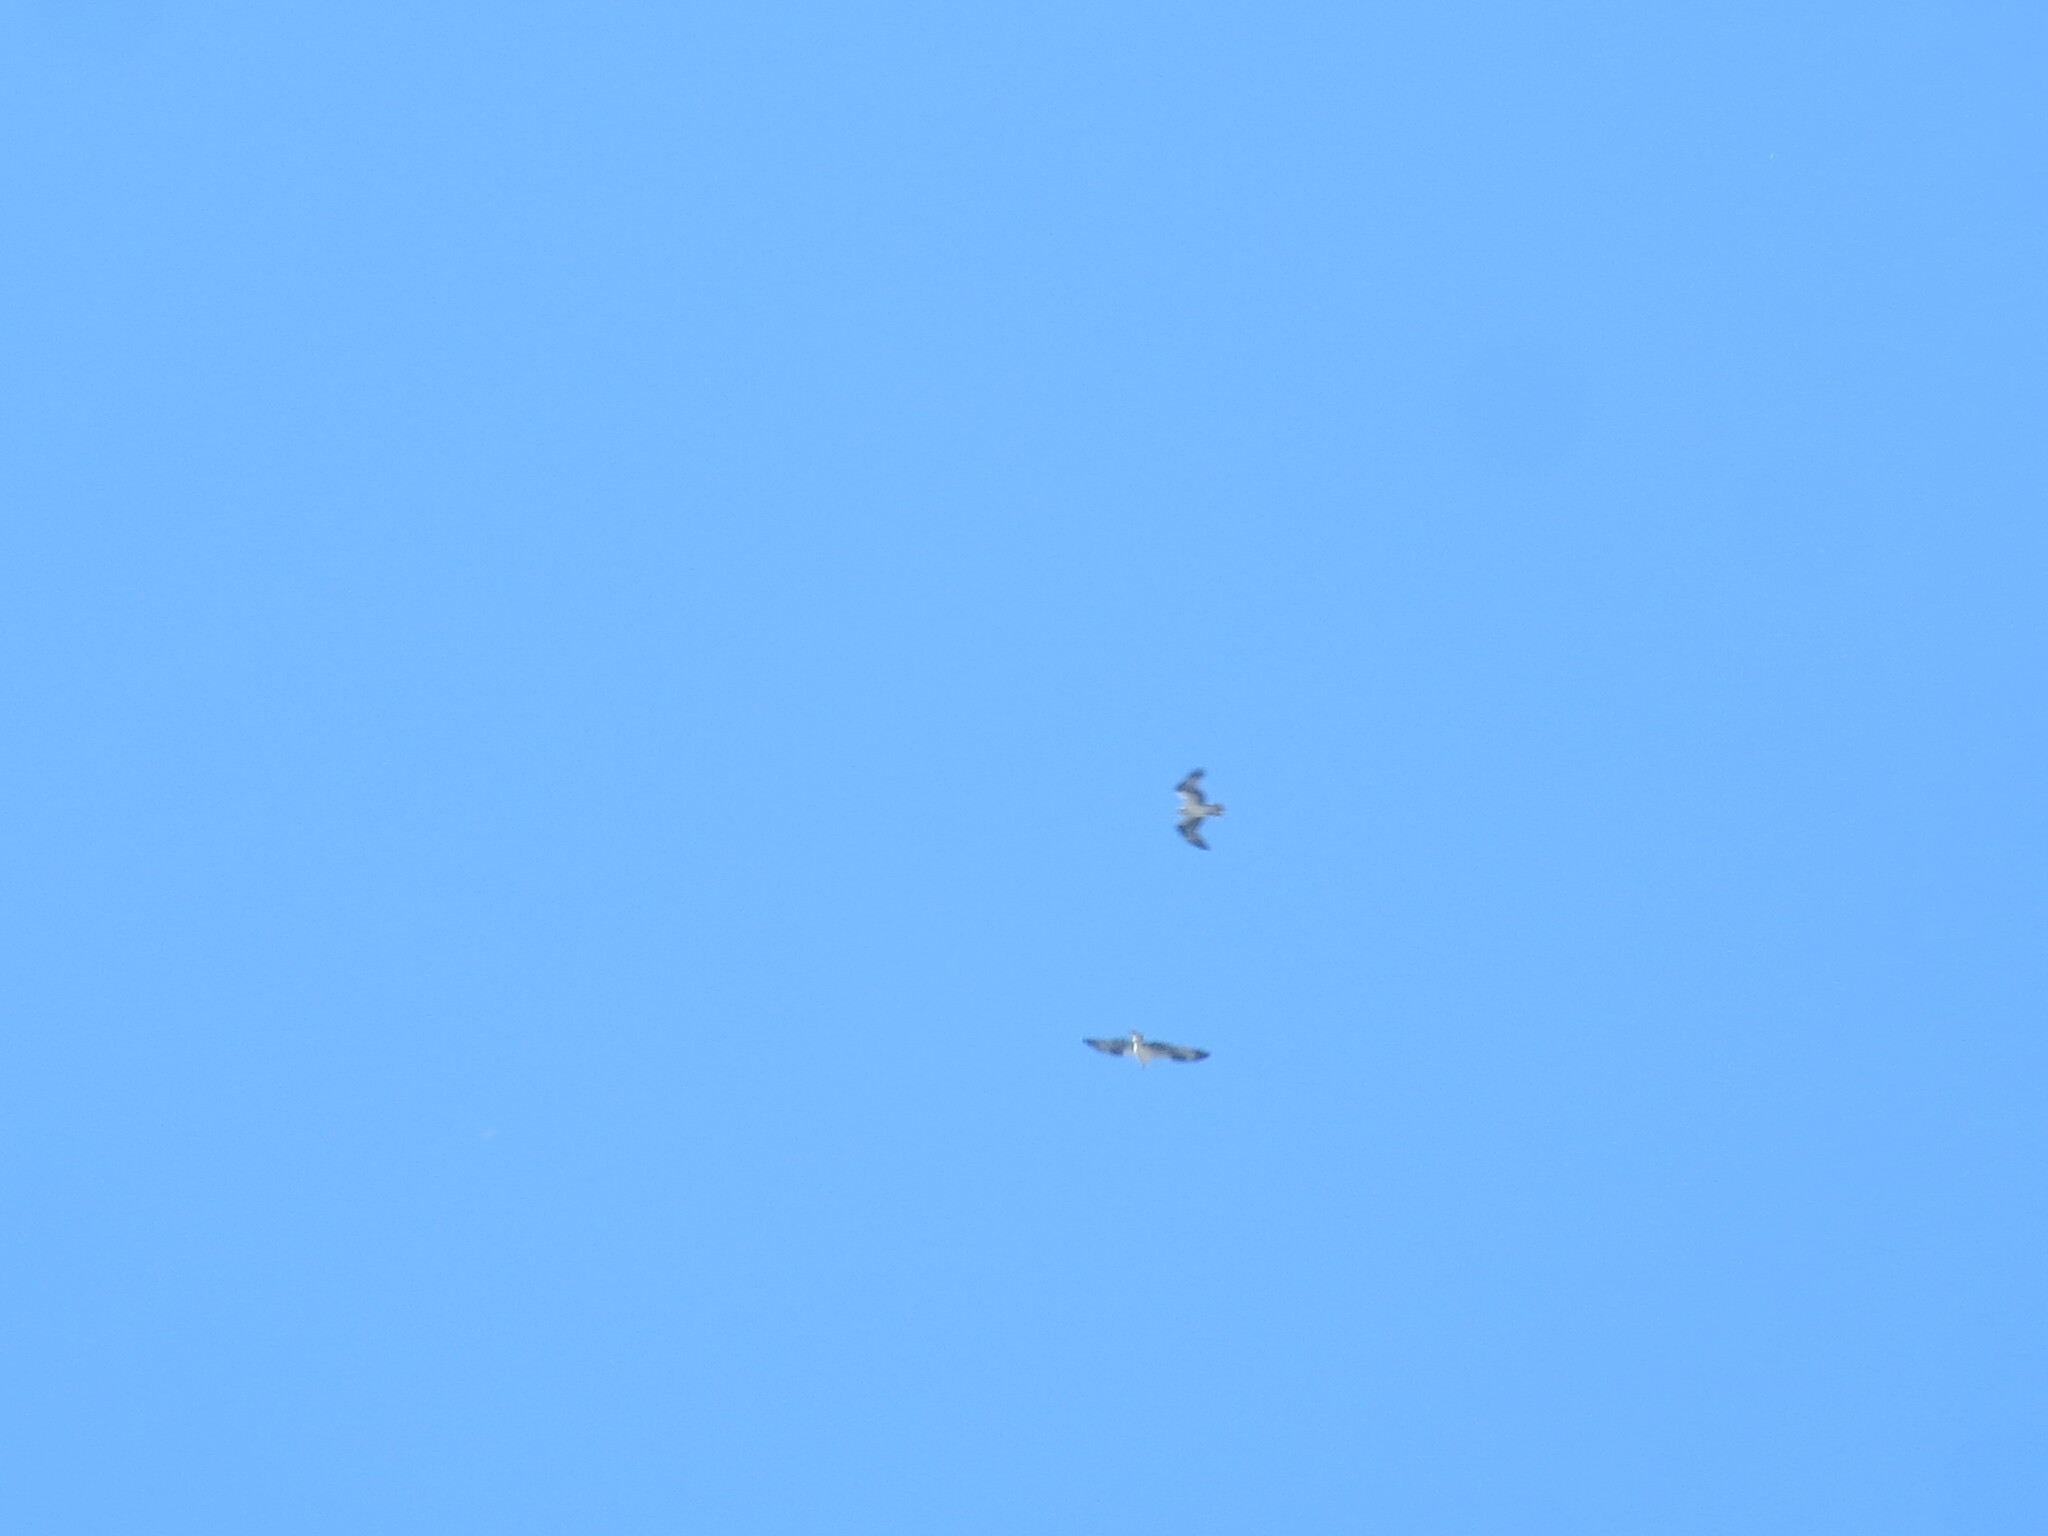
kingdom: Animalia
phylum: Chordata
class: Aves
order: Accipitriformes
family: Pandionidae
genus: Pandion
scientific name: Pandion haliaetus
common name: Osprey
